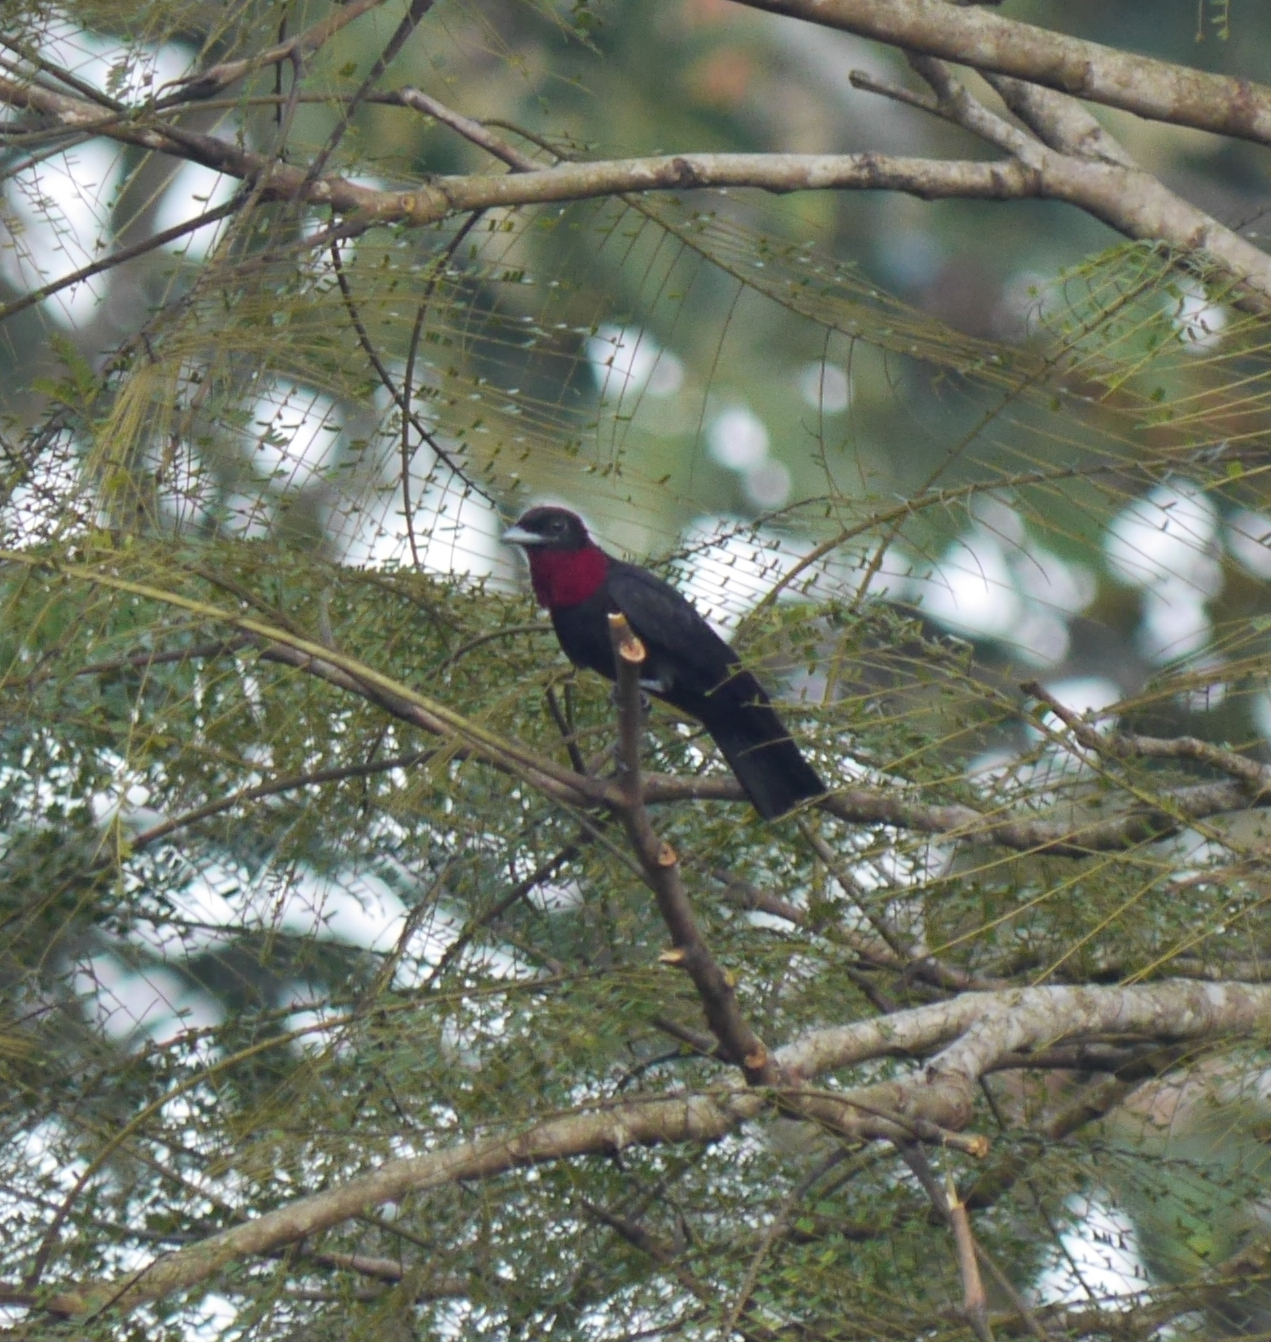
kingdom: Animalia
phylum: Chordata
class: Aves
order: Passeriformes
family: Cotingidae
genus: Querula
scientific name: Querula purpurata
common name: Purple-throated fruitcrow
